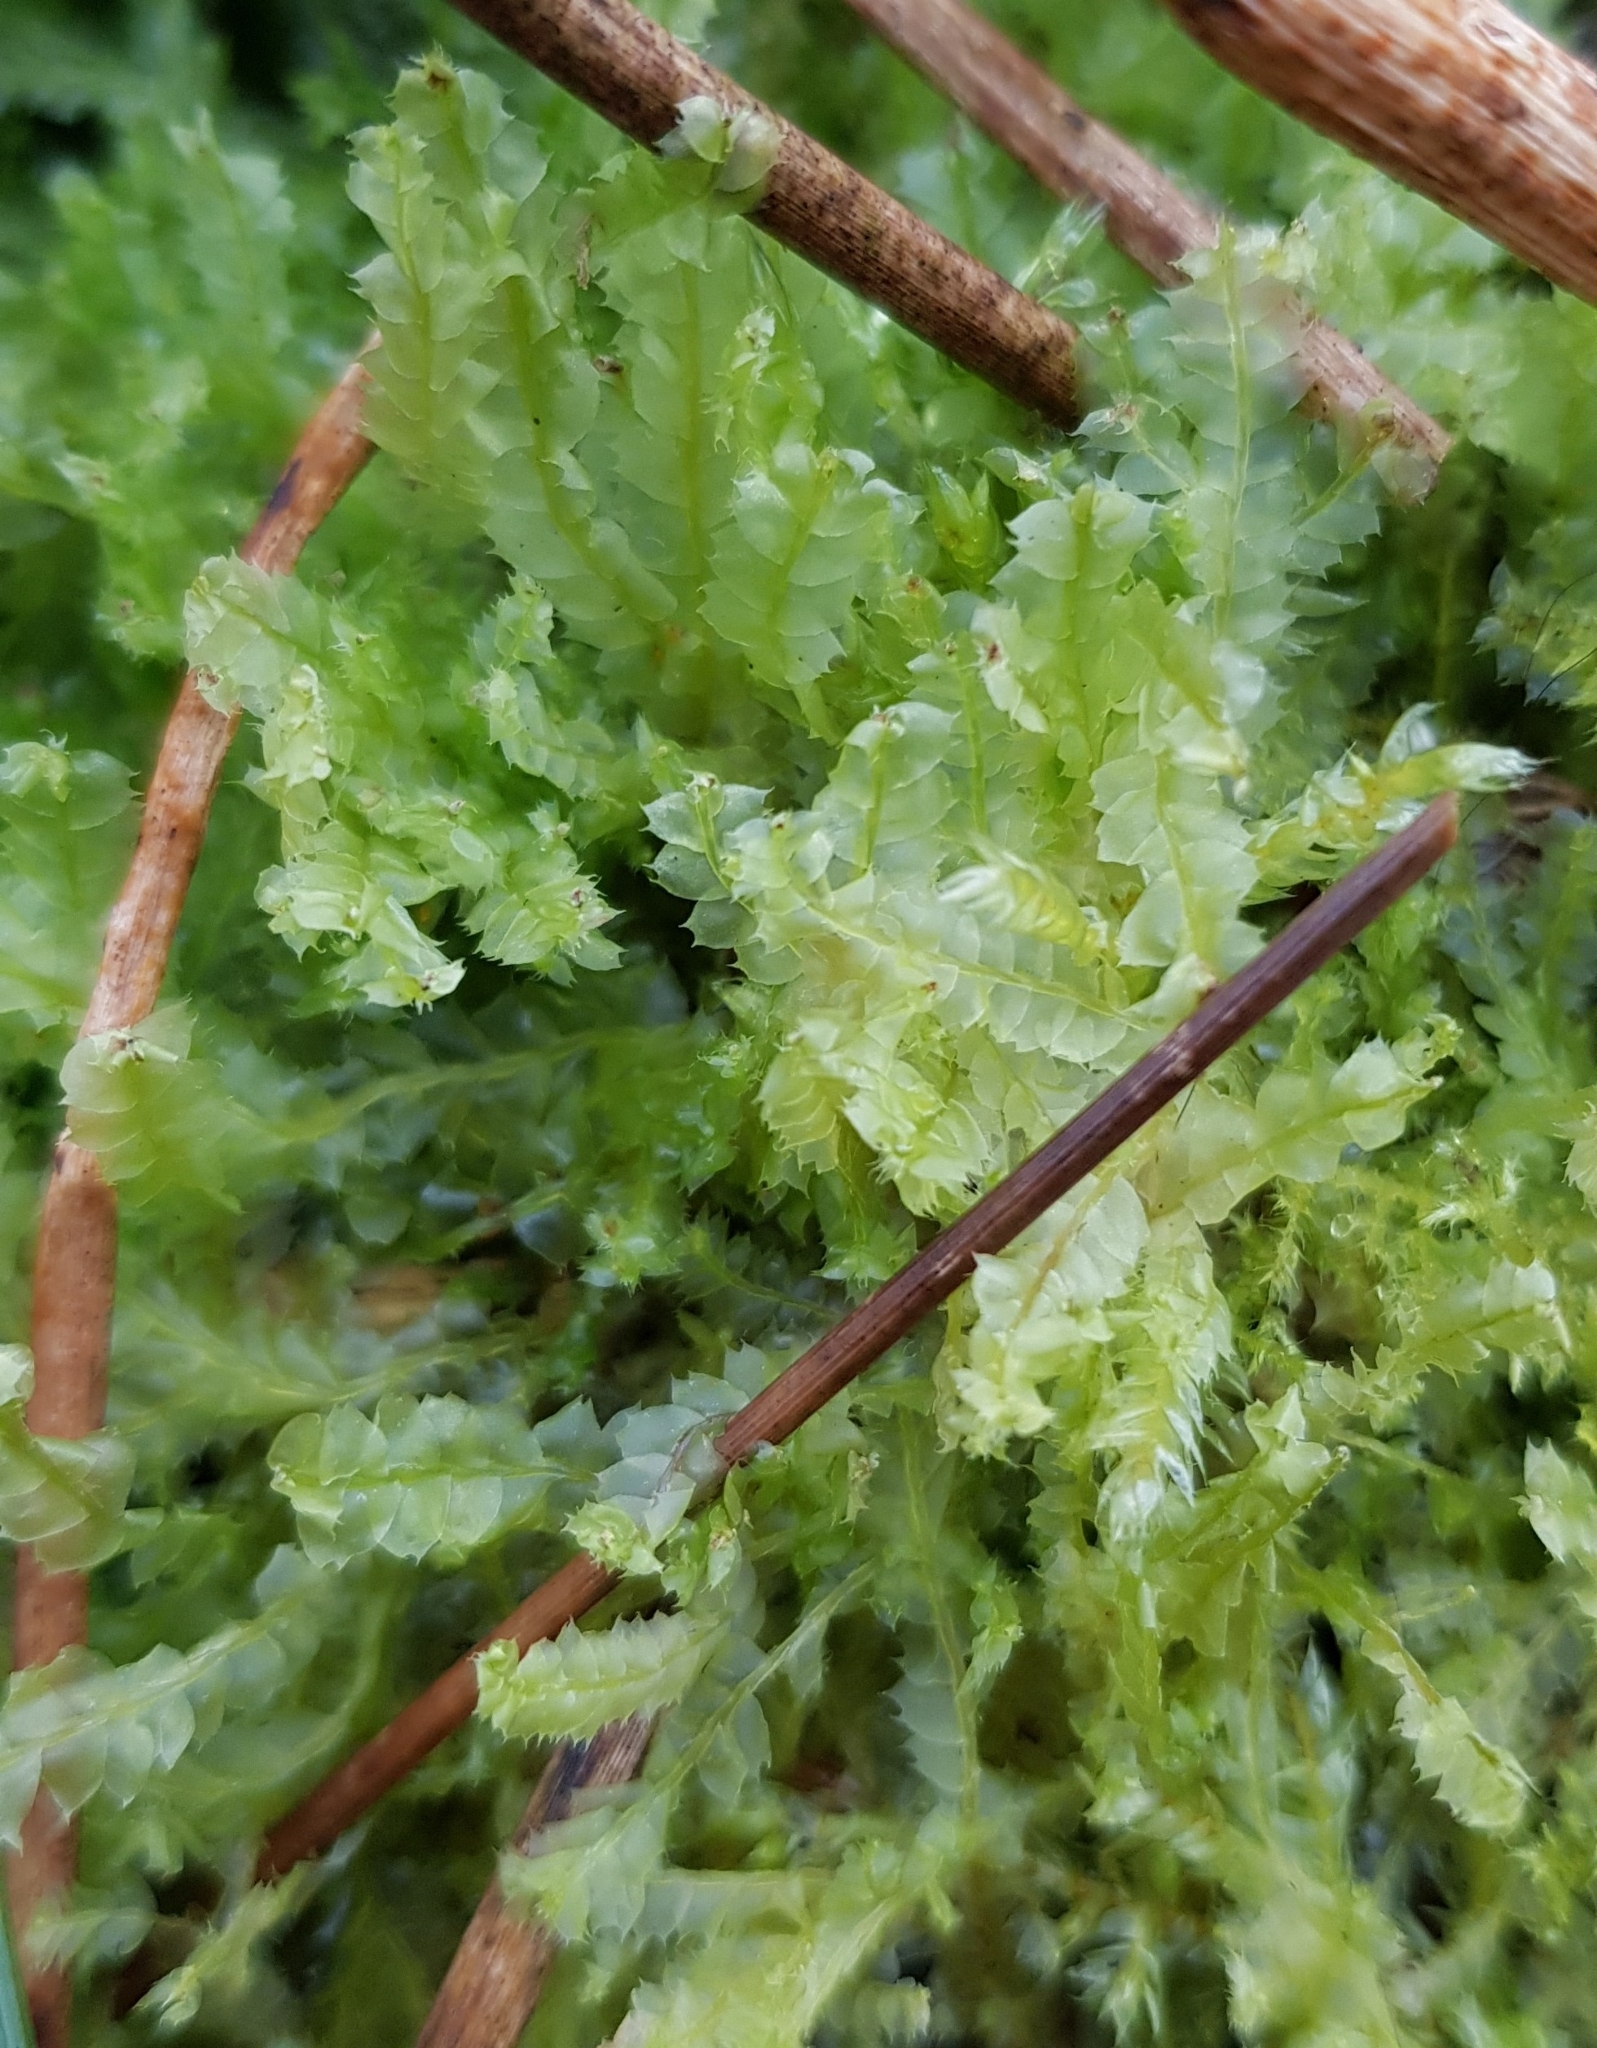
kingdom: Plantae
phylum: Marchantiophyta
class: Jungermanniopsida
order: Jungermanniales
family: Lophocoleaceae
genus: Lophocolea
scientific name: Lophocolea bidentata
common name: Bifid crestwort
